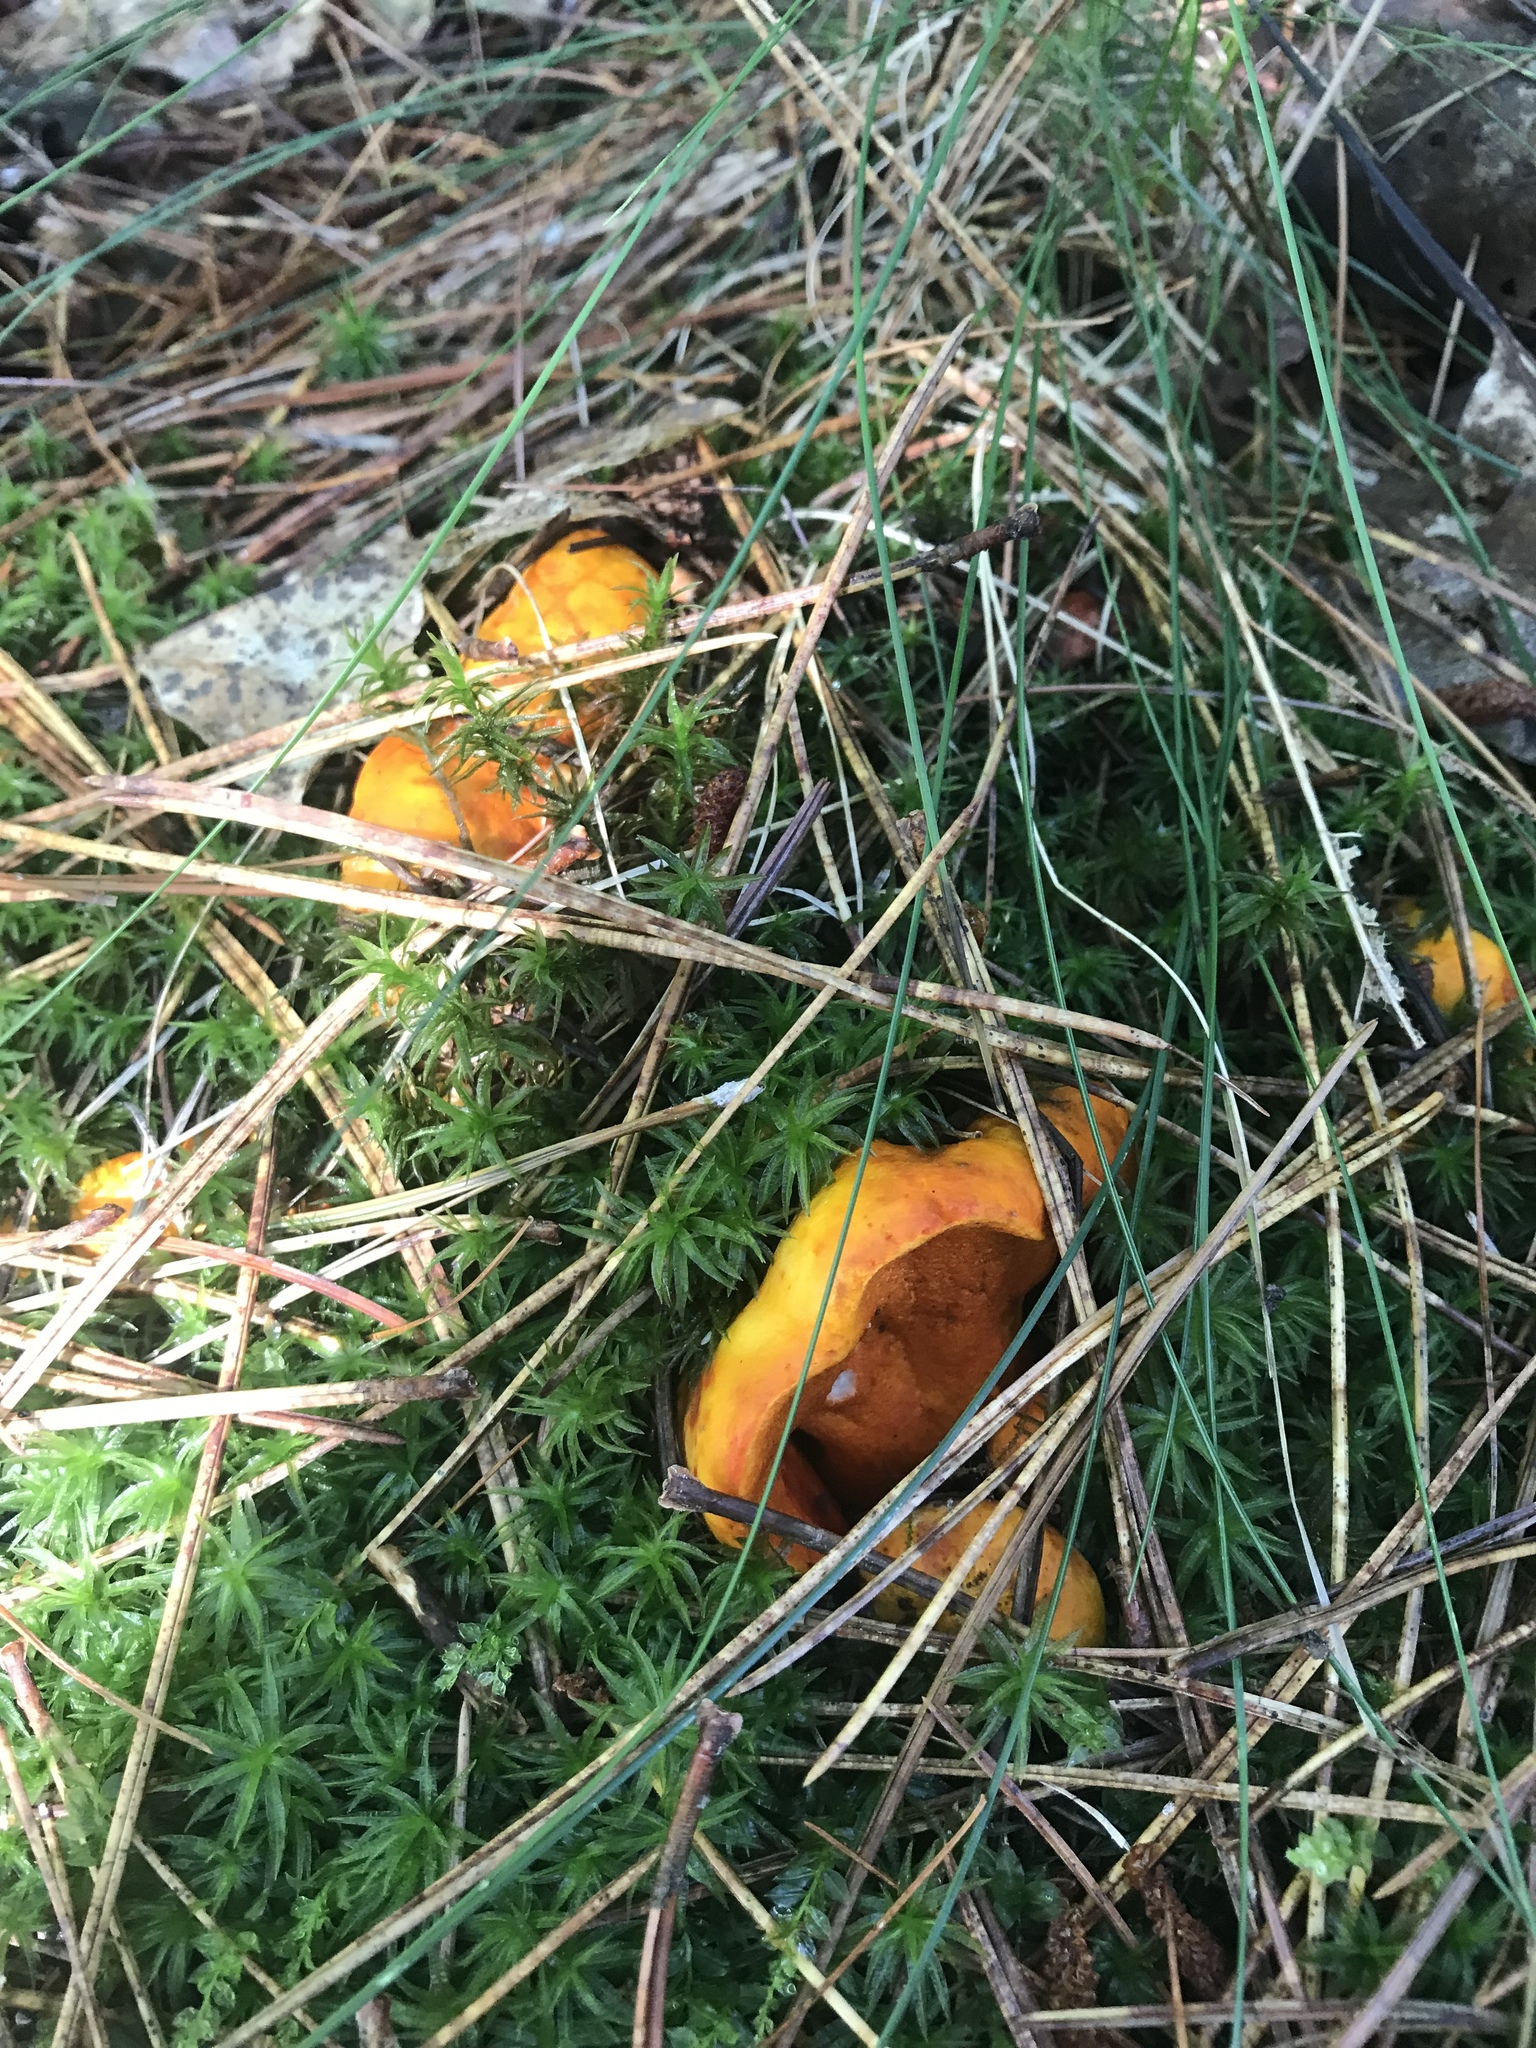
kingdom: Fungi
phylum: Ascomycota
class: Sordariomycetes
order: Hypocreales
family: Hypocreaceae
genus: Hypomyces
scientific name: Hypomyces lactifluorum
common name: Lobster mushroom
